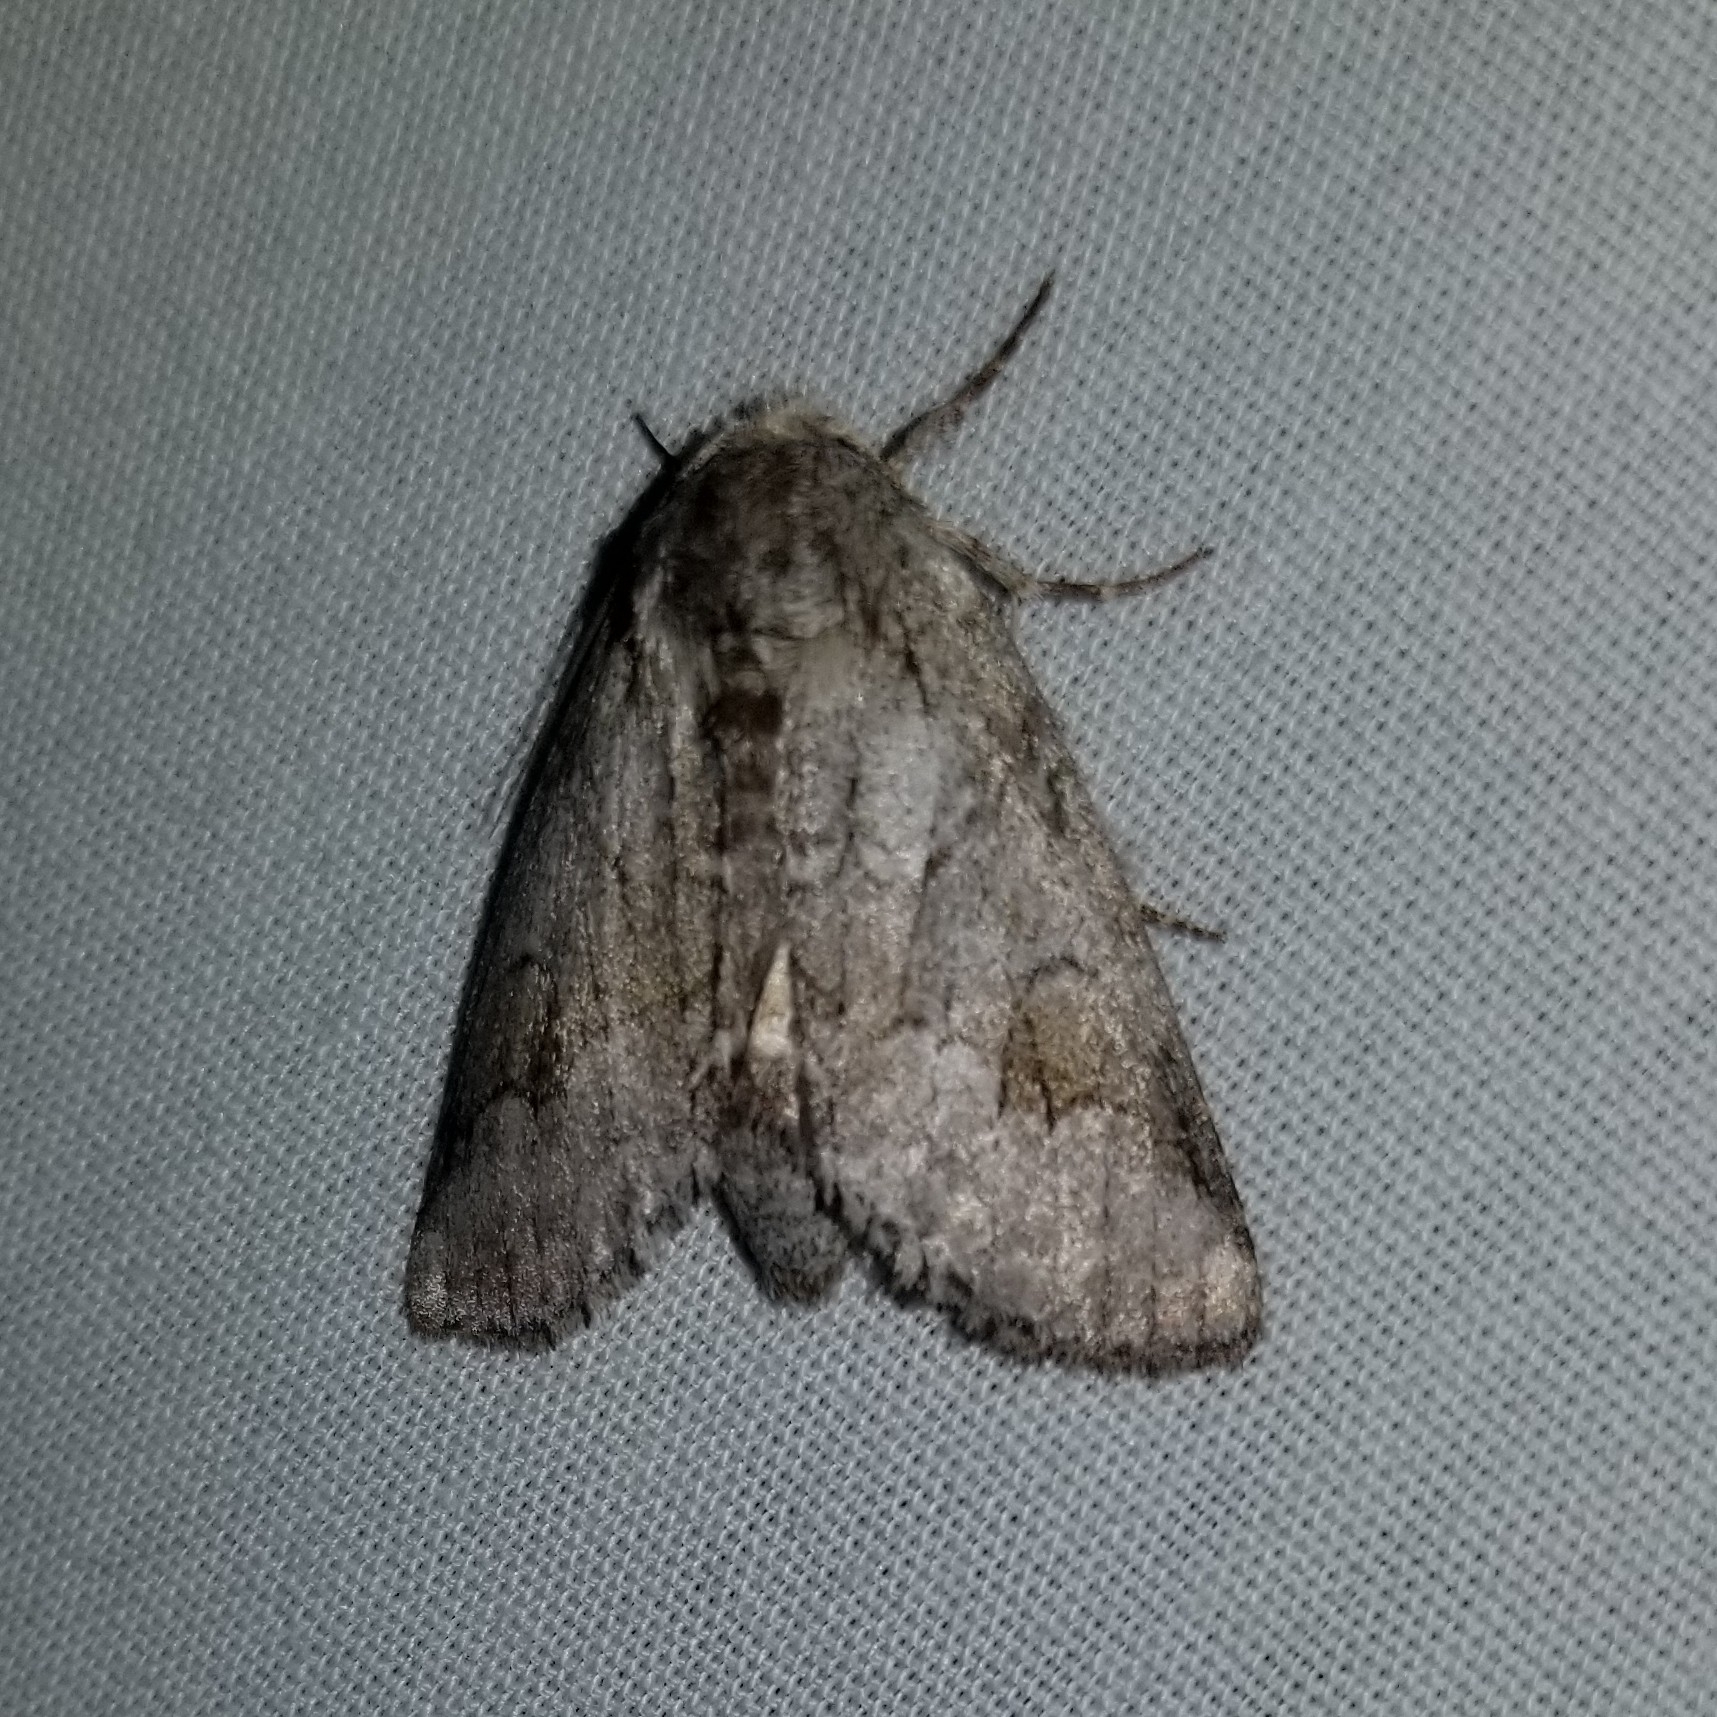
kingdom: Animalia
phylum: Arthropoda
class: Insecta
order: Lepidoptera
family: Notodontidae
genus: Lochmaeus
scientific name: Lochmaeus bilineata
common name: Double-lined prominent
